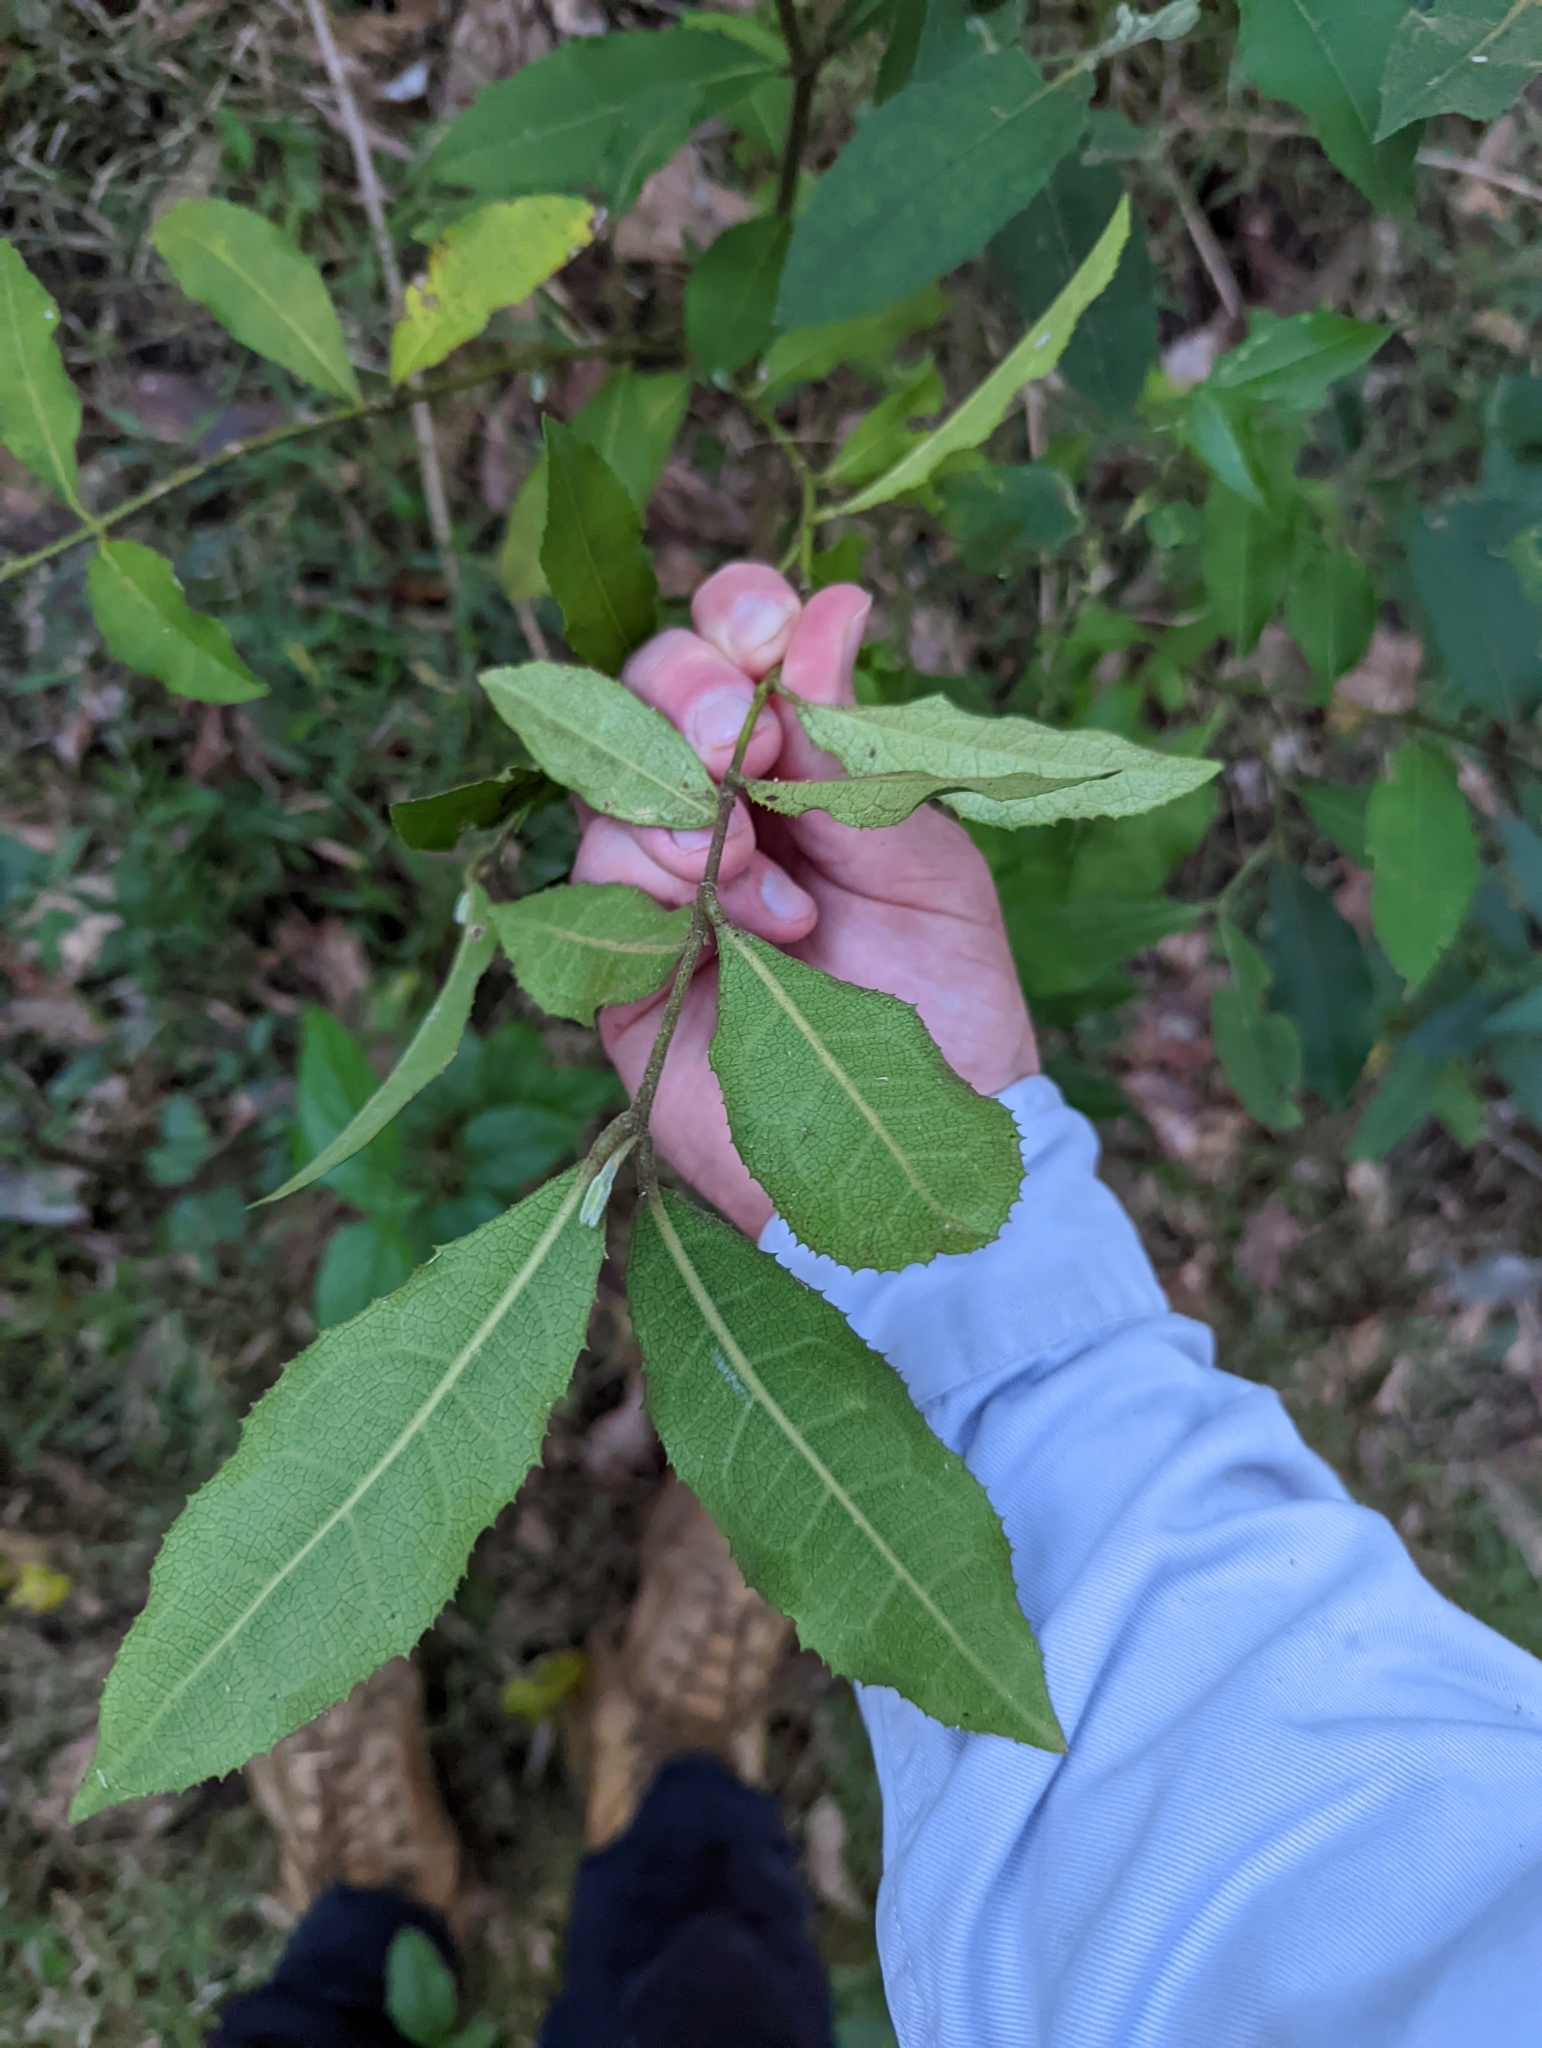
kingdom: Plantae
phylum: Tracheophyta
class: Magnoliopsida
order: Laurales
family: Monimiaceae
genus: Wilkiea
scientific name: Wilkiea hugeliana
